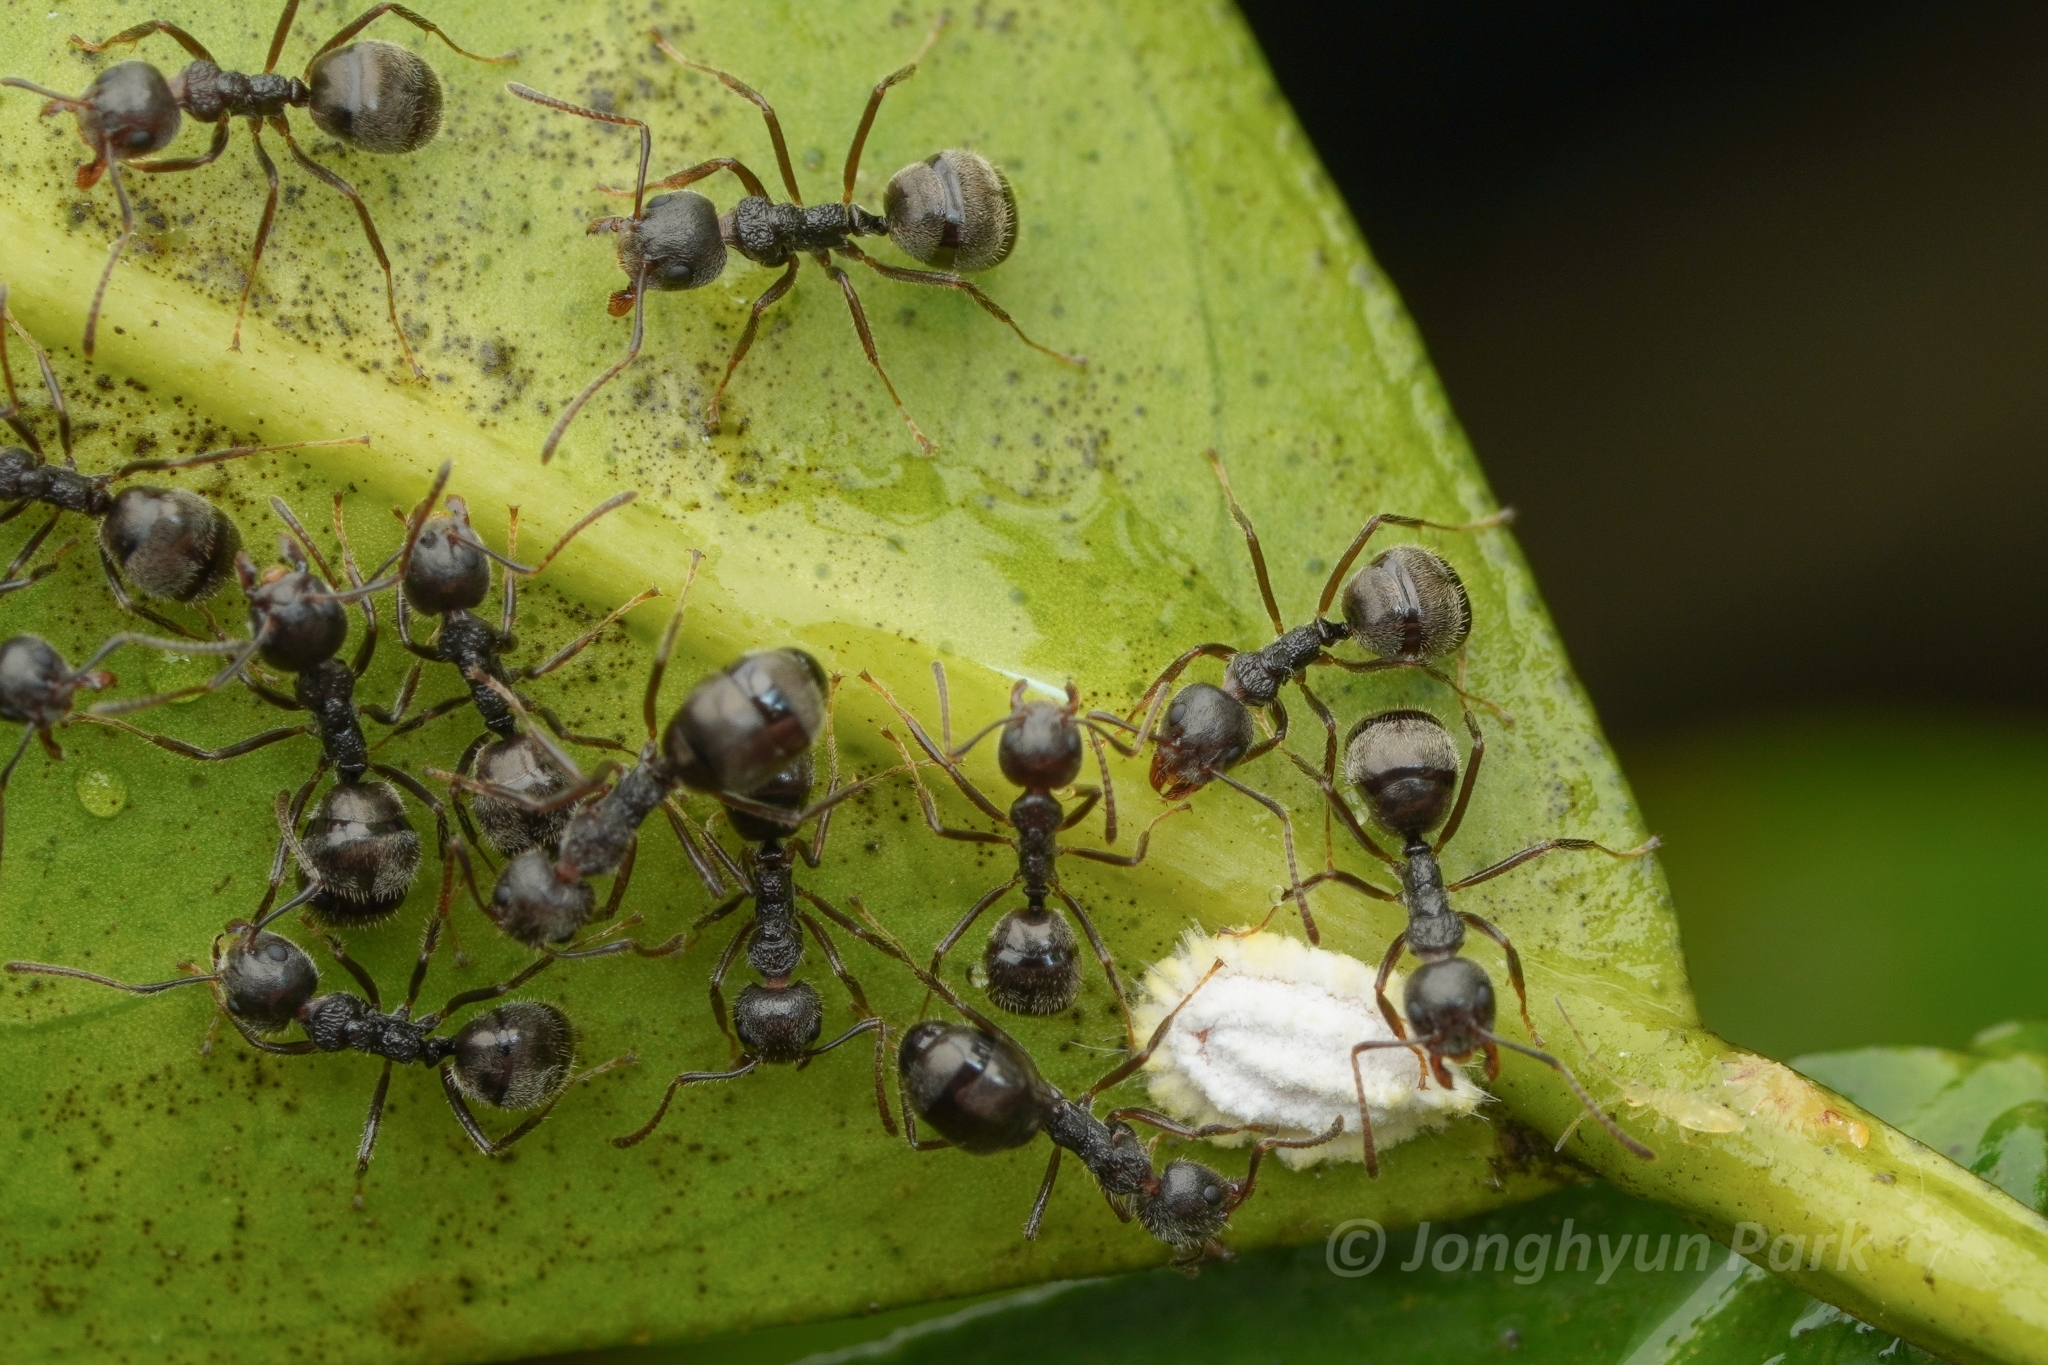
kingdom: Animalia
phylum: Arthropoda
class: Insecta
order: Hymenoptera
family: Formicidae
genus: Dolichoderus
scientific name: Dolichoderus thoracicus
